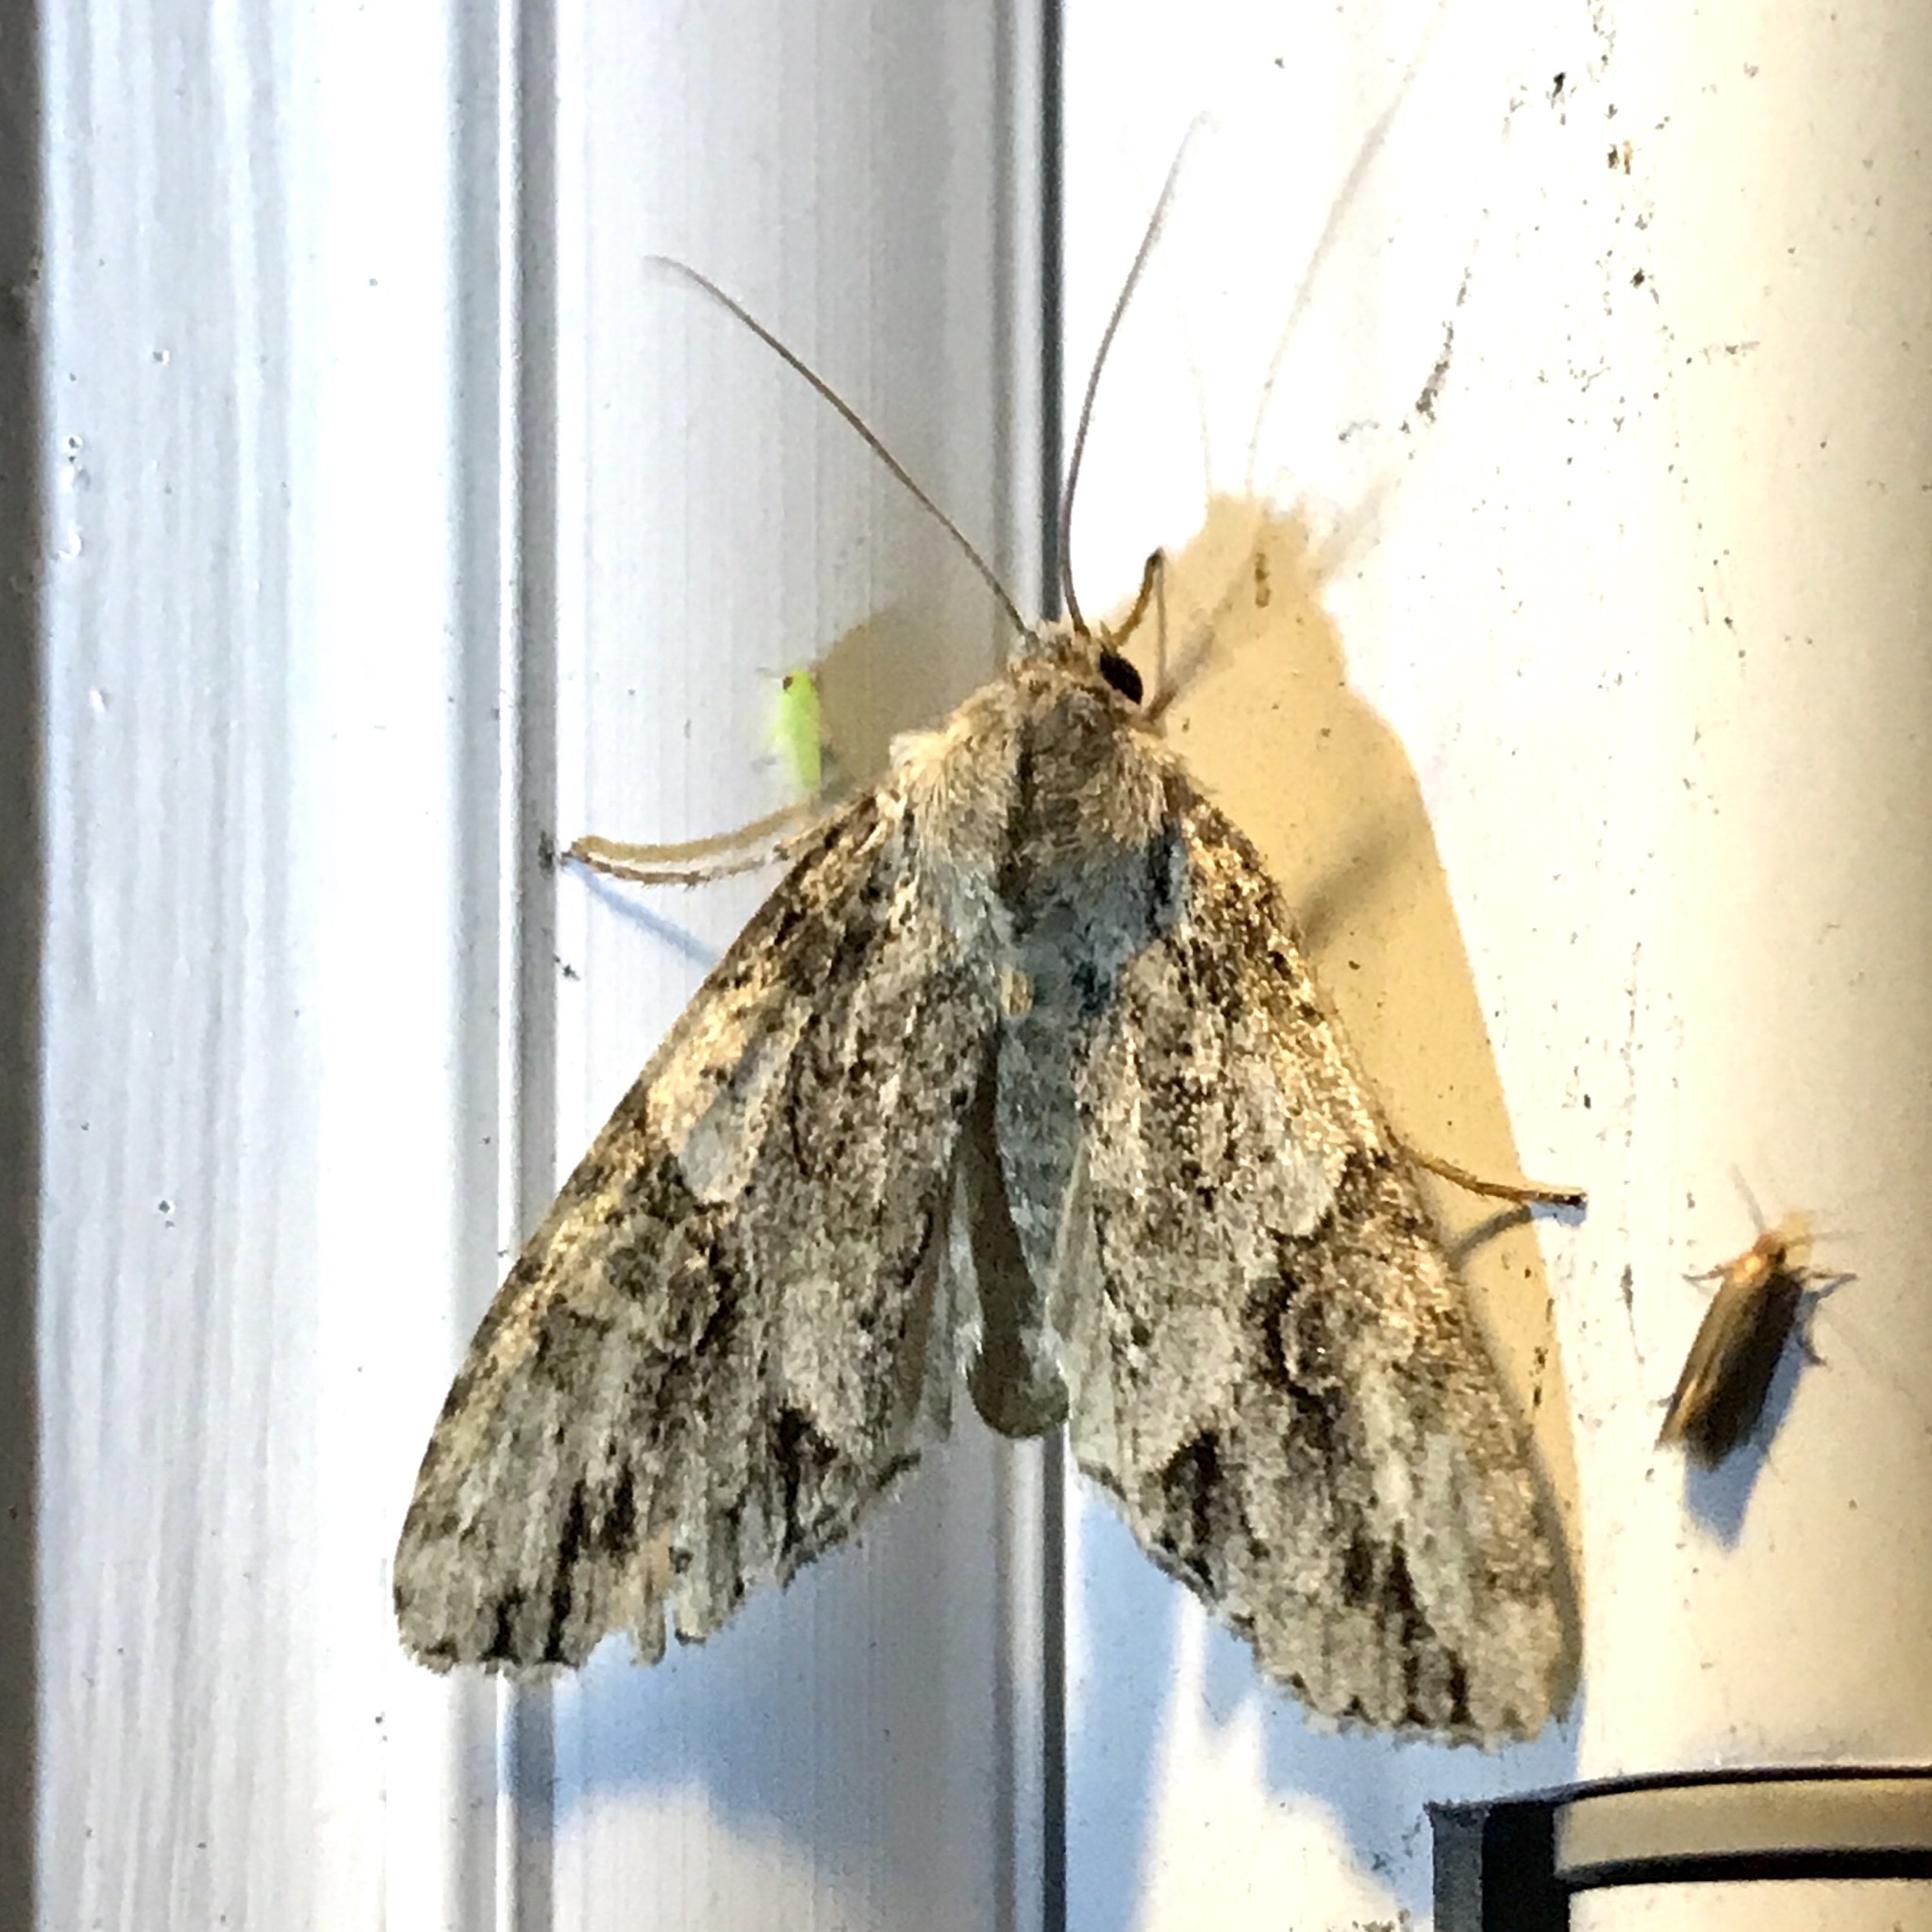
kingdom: Animalia
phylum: Arthropoda
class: Insecta
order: Lepidoptera
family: Noctuidae
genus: Achatia
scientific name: Achatia latex
